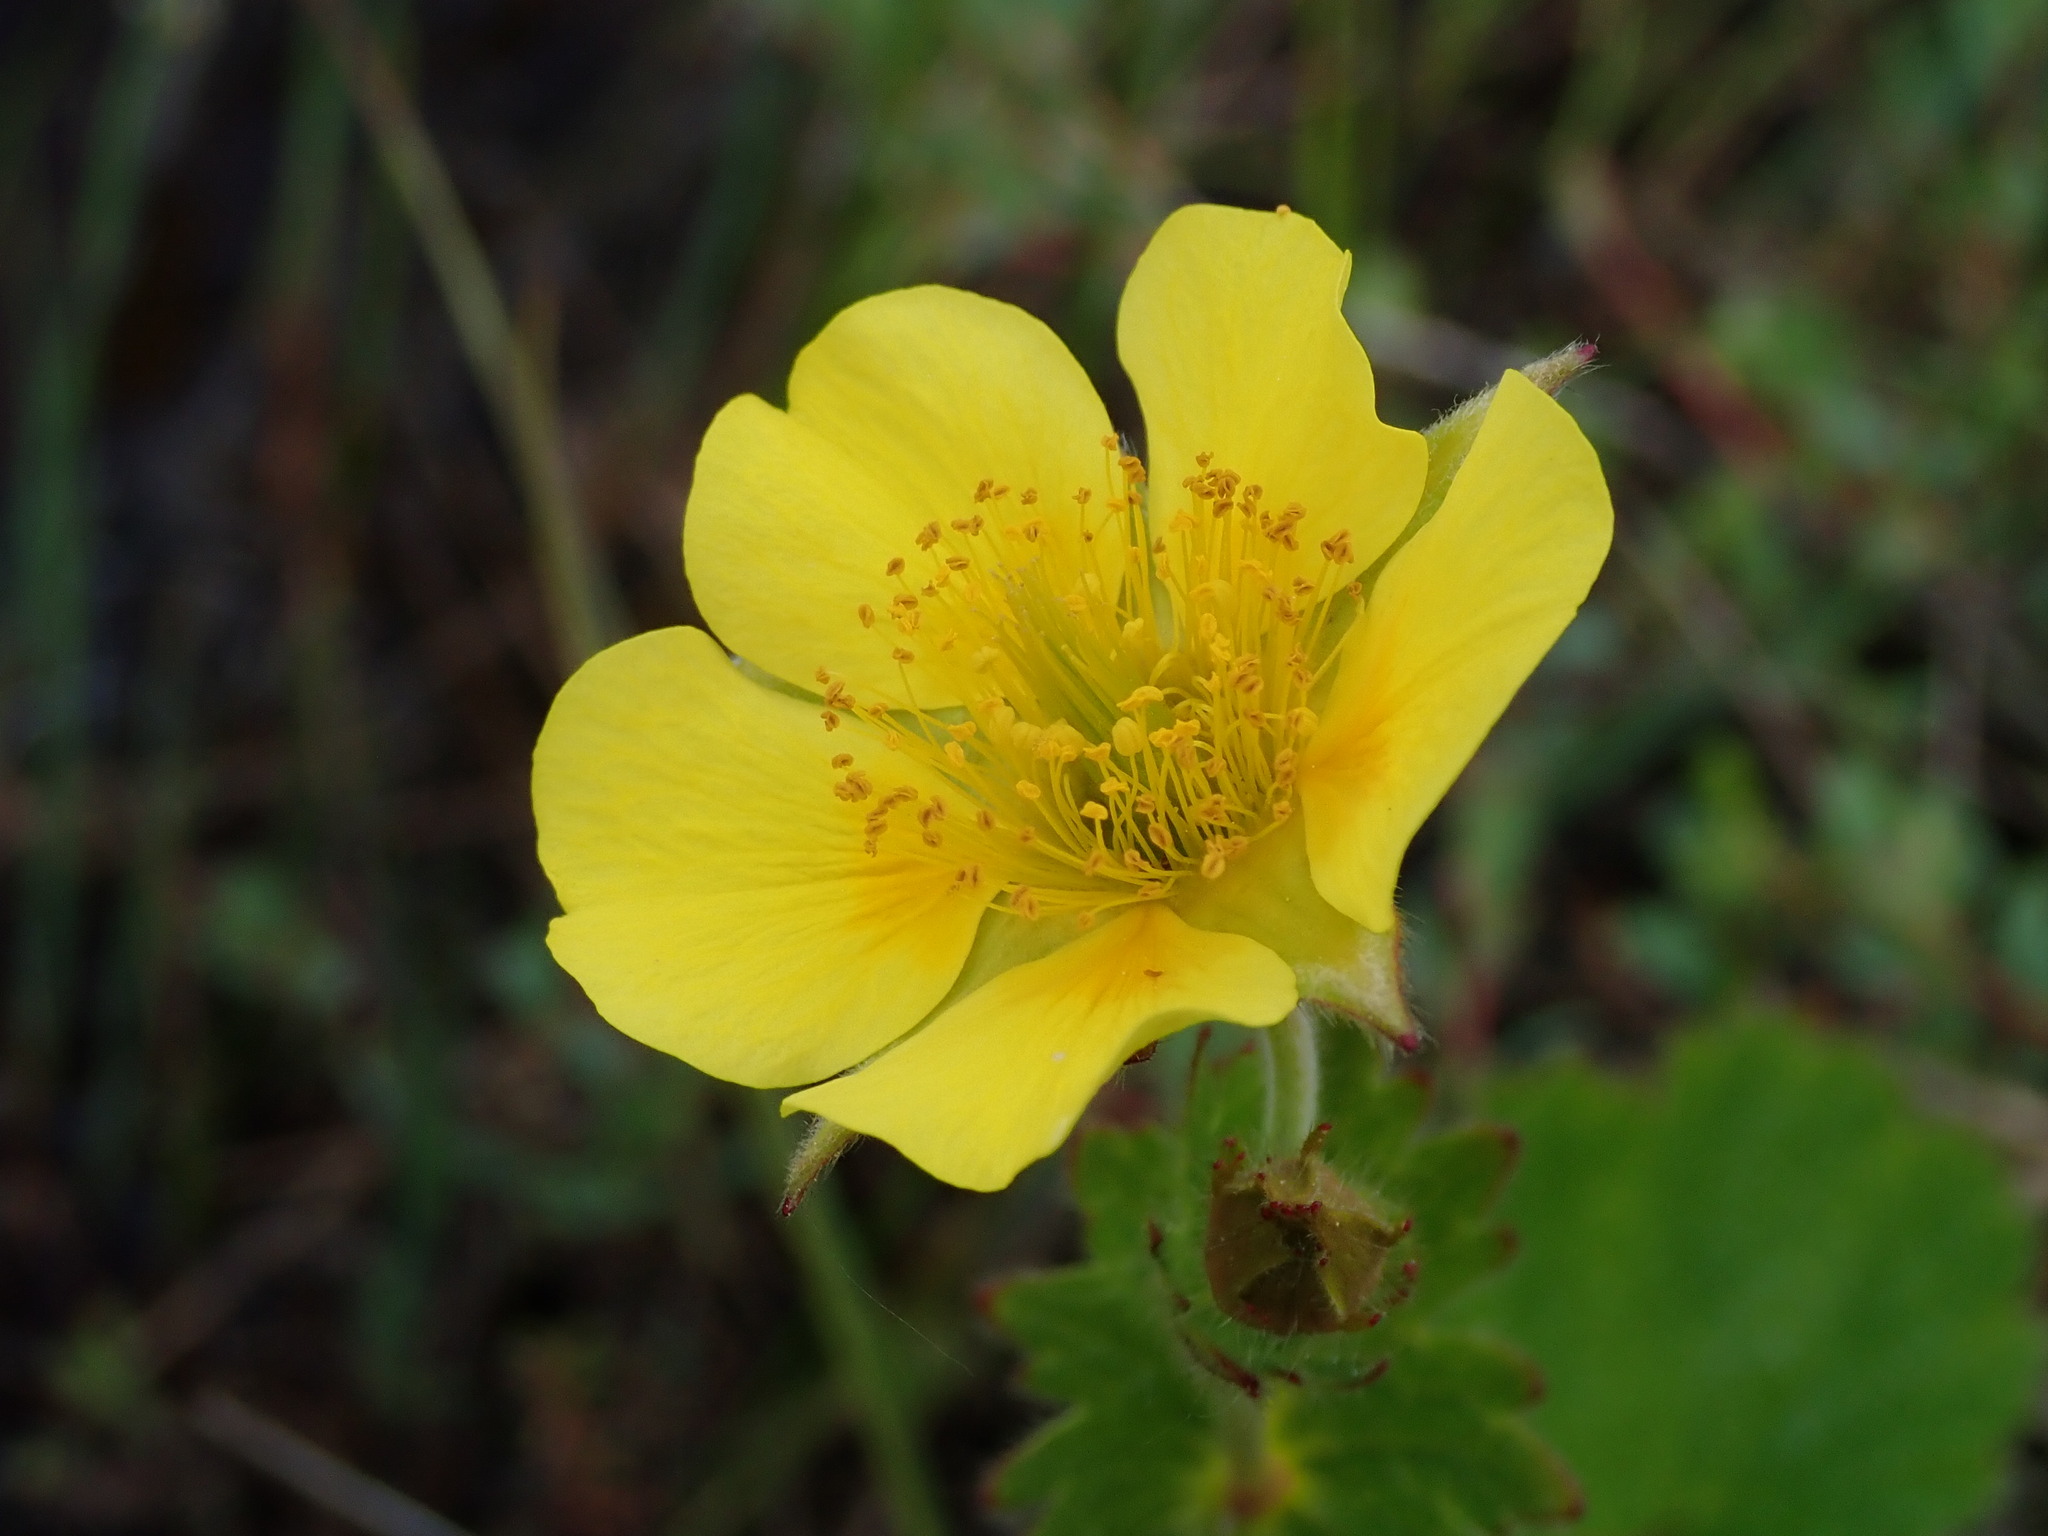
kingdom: Plantae
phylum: Tracheophyta
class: Magnoliopsida
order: Rosales
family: Rosaceae
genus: Geum
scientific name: Geum calthifolium
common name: Caltha-leaved avens
